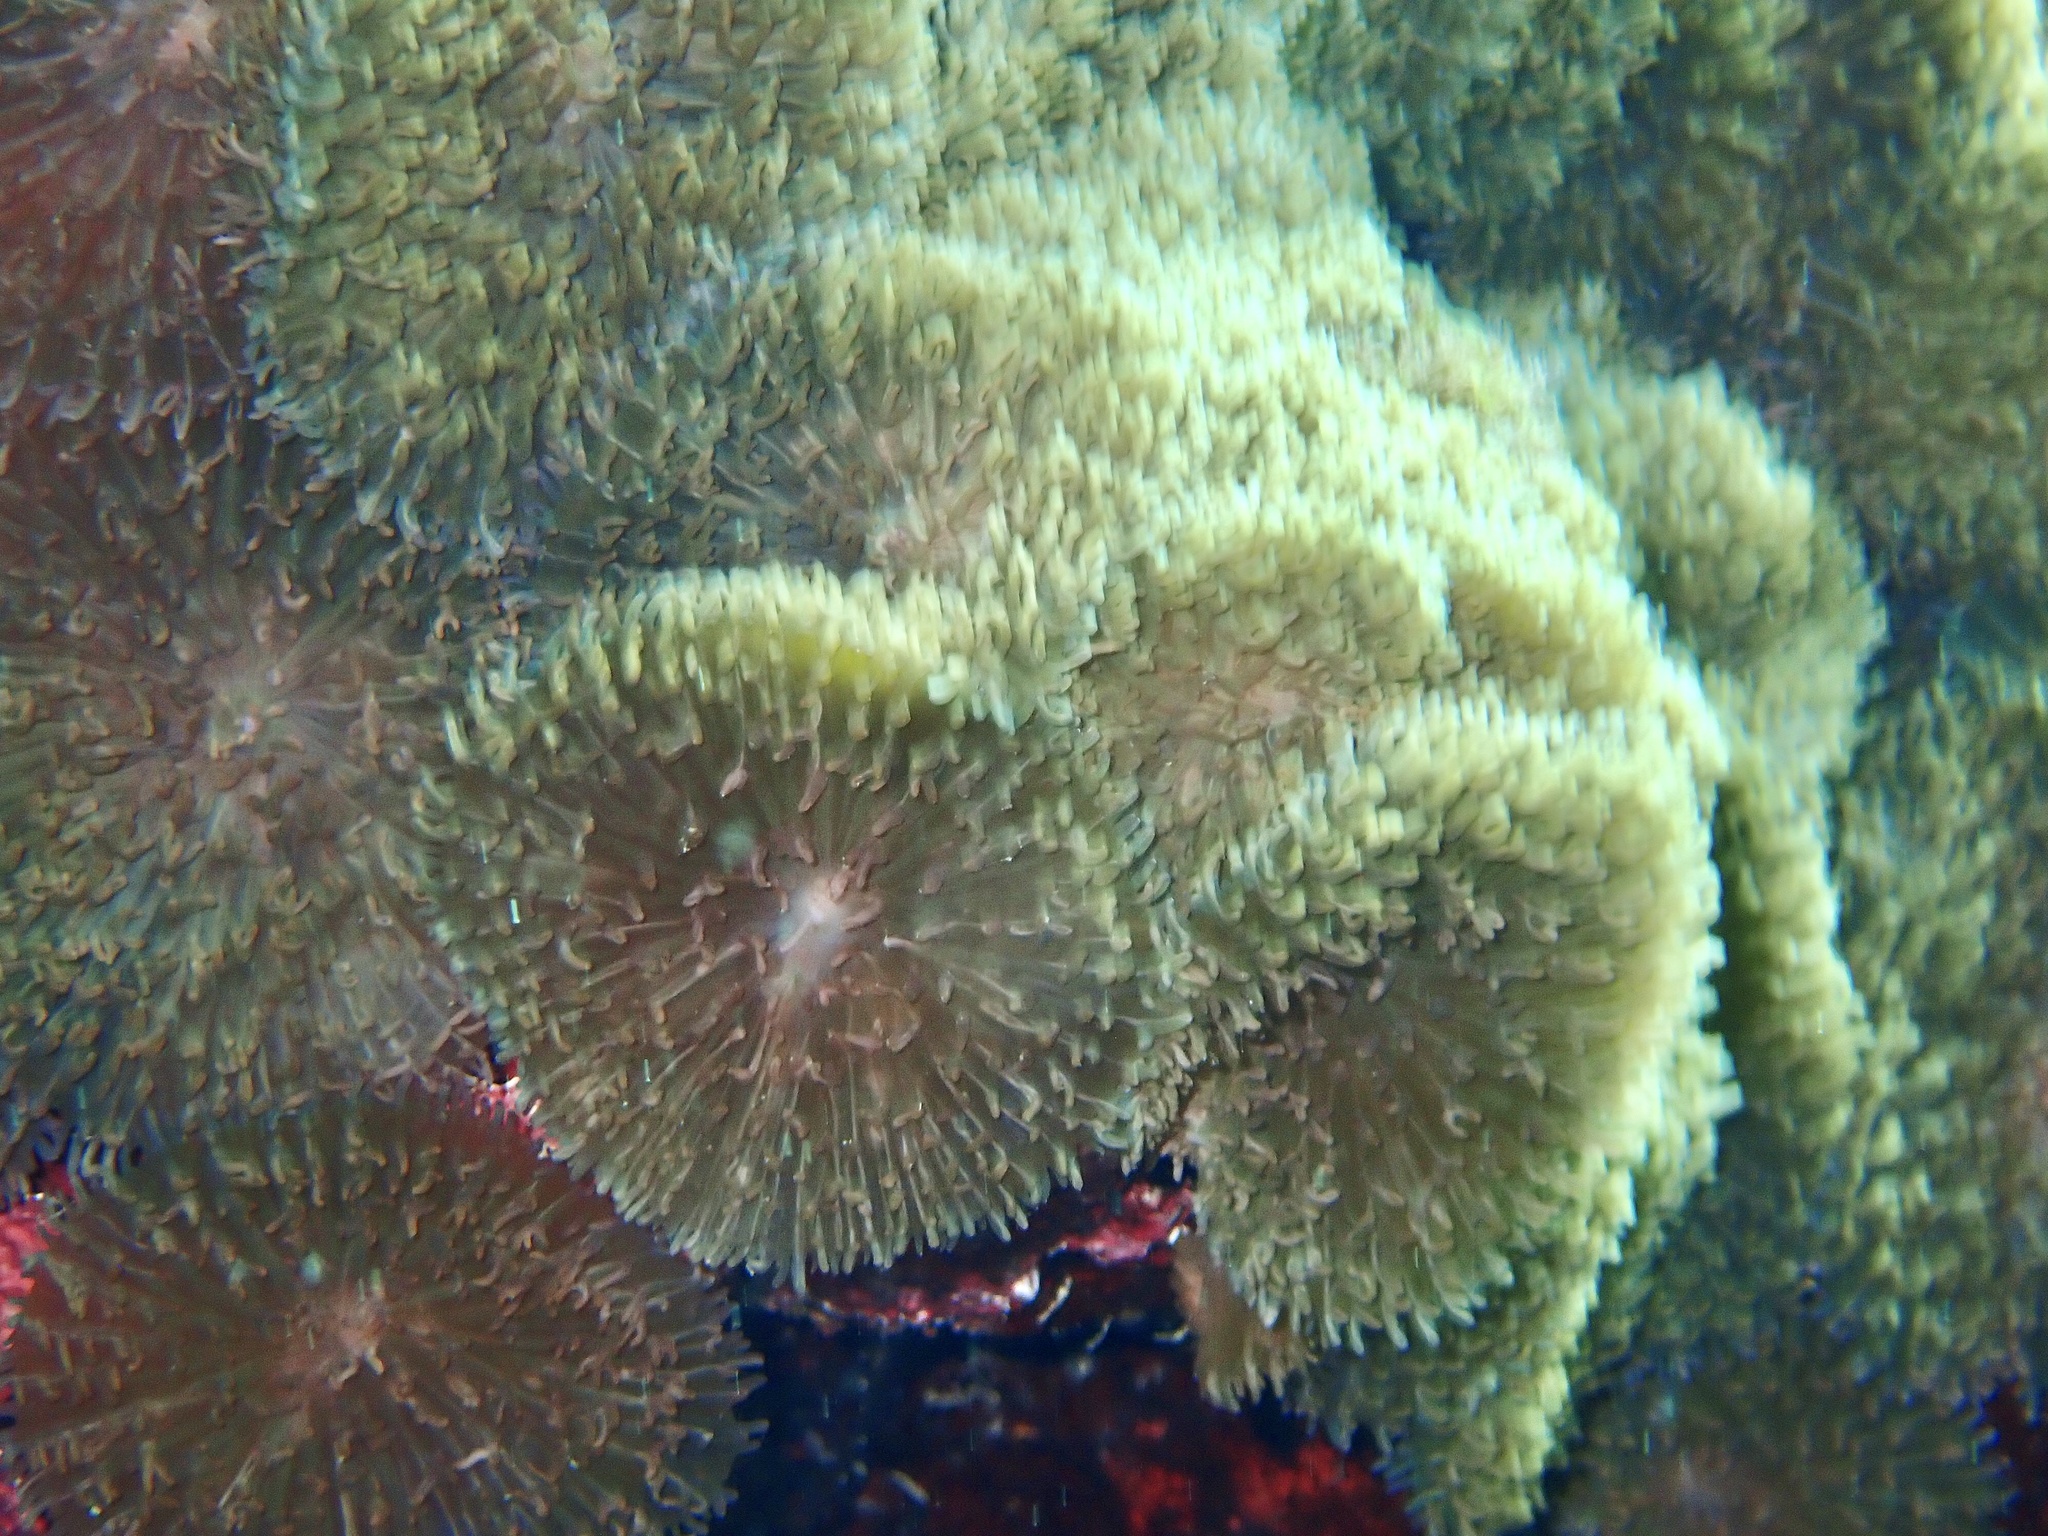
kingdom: Animalia
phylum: Cnidaria
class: Anthozoa
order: Corallimorpharia
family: Discosomidae
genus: Rhodactis
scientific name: Rhodactis rhodostoma
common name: Red-mouth mushroom anemone
